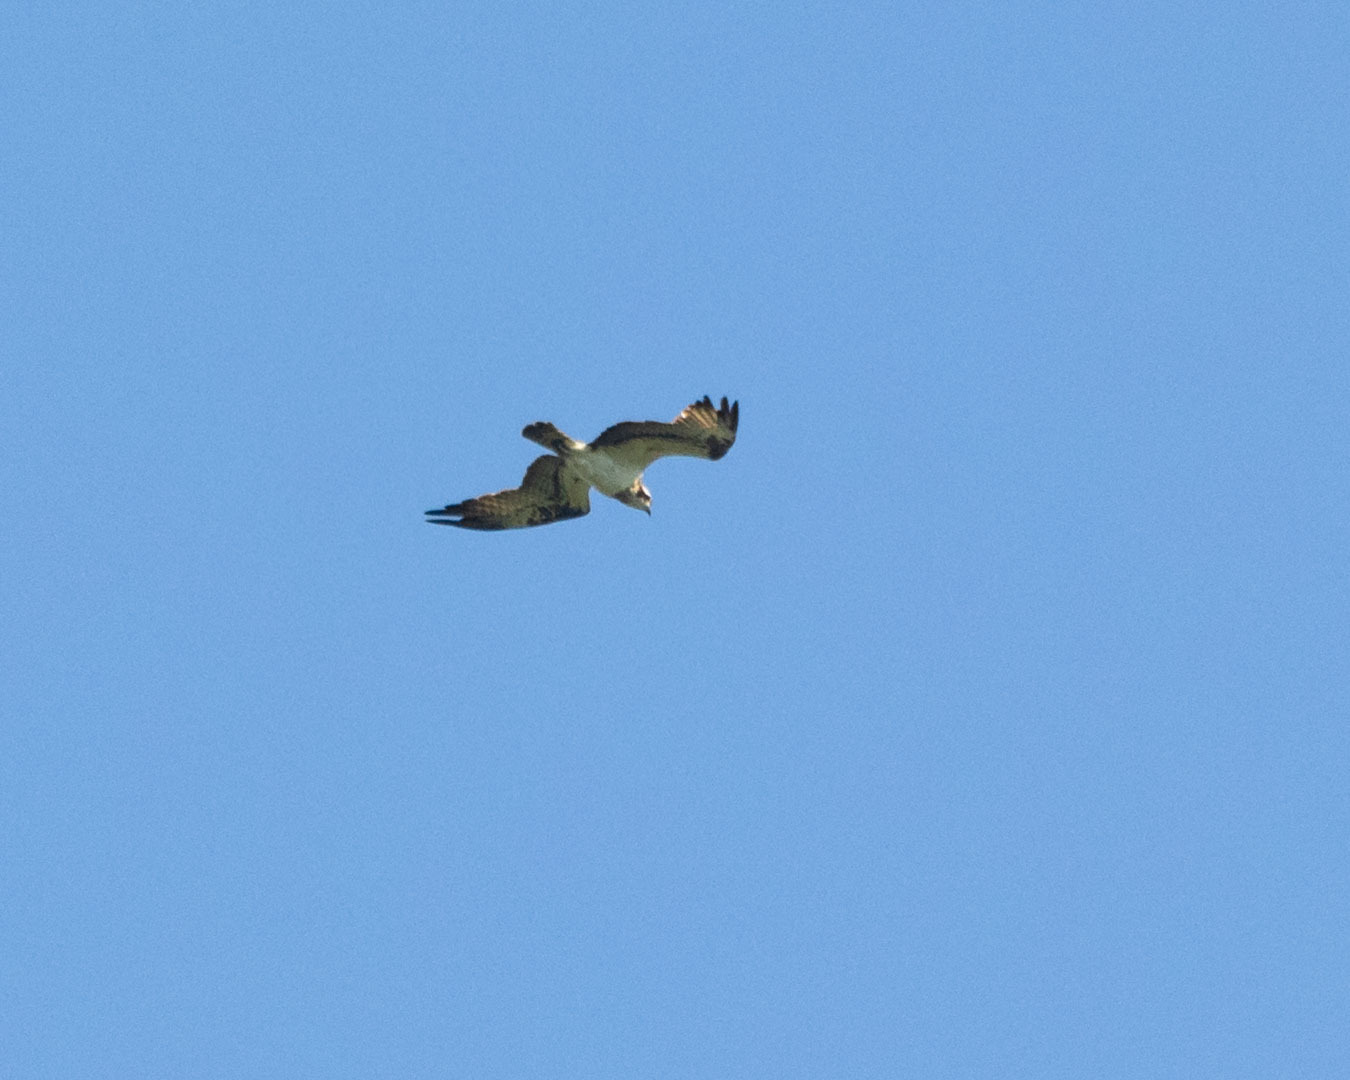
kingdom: Animalia
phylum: Chordata
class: Aves
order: Accipitriformes
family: Pandionidae
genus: Pandion
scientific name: Pandion haliaetus
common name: Osprey
